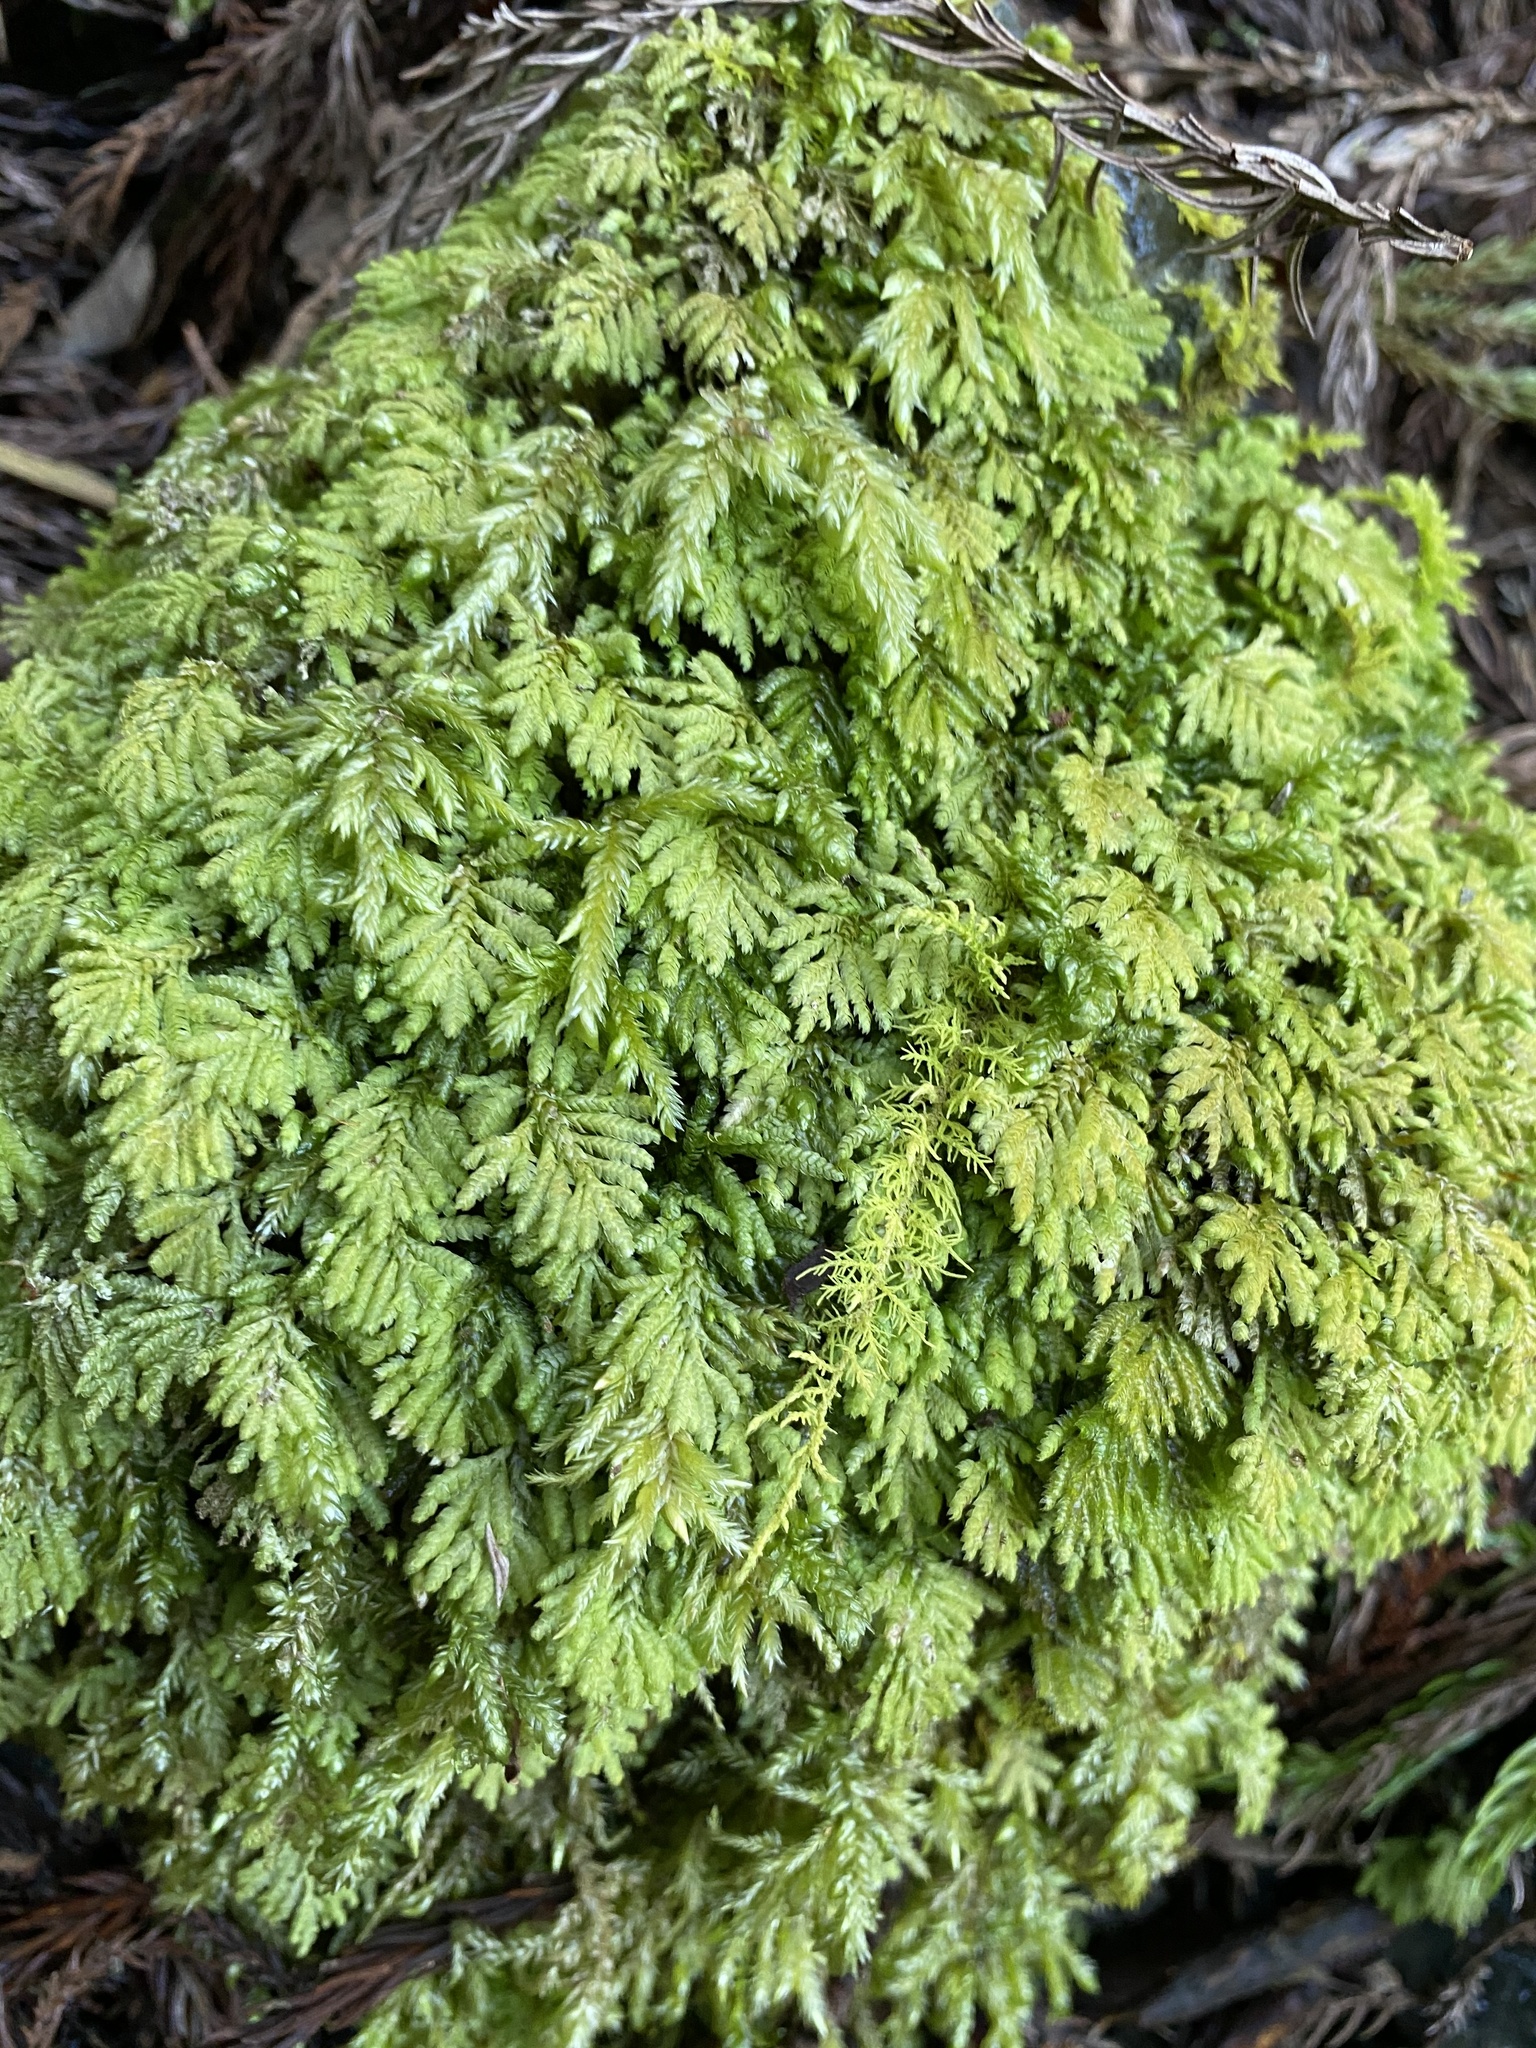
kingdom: Plantae
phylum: Bryophyta
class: Bryopsida
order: Hypopterygiales
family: Hypopterygiaceae
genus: Hypopterygium
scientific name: Hypopterygium flavolimbatum
